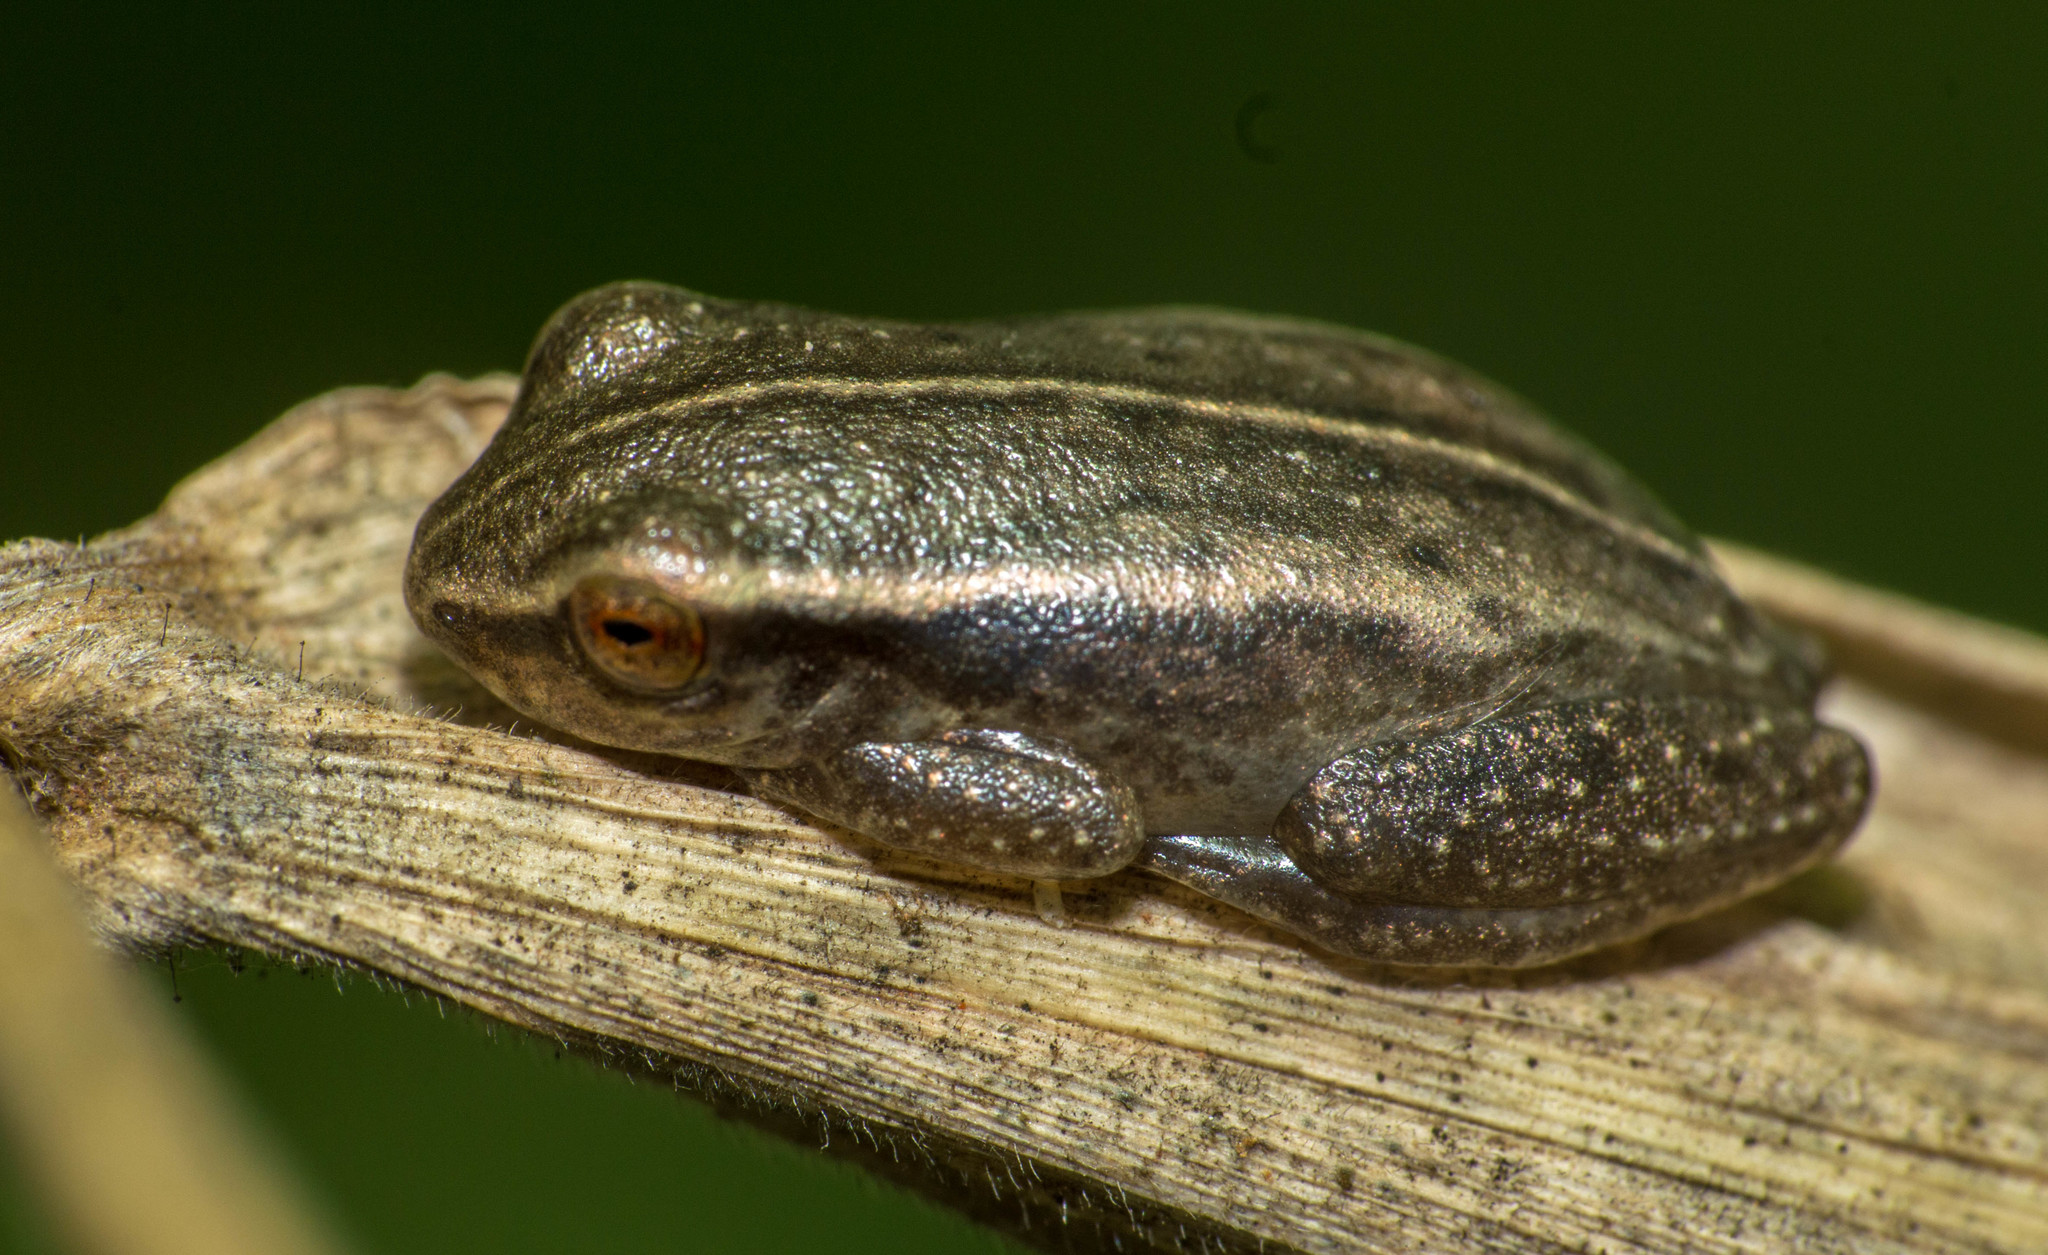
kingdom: Animalia
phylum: Chordata
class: Amphibia
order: Anura
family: Hylidae
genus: Dendropsophus
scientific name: Dendropsophus sanborni
